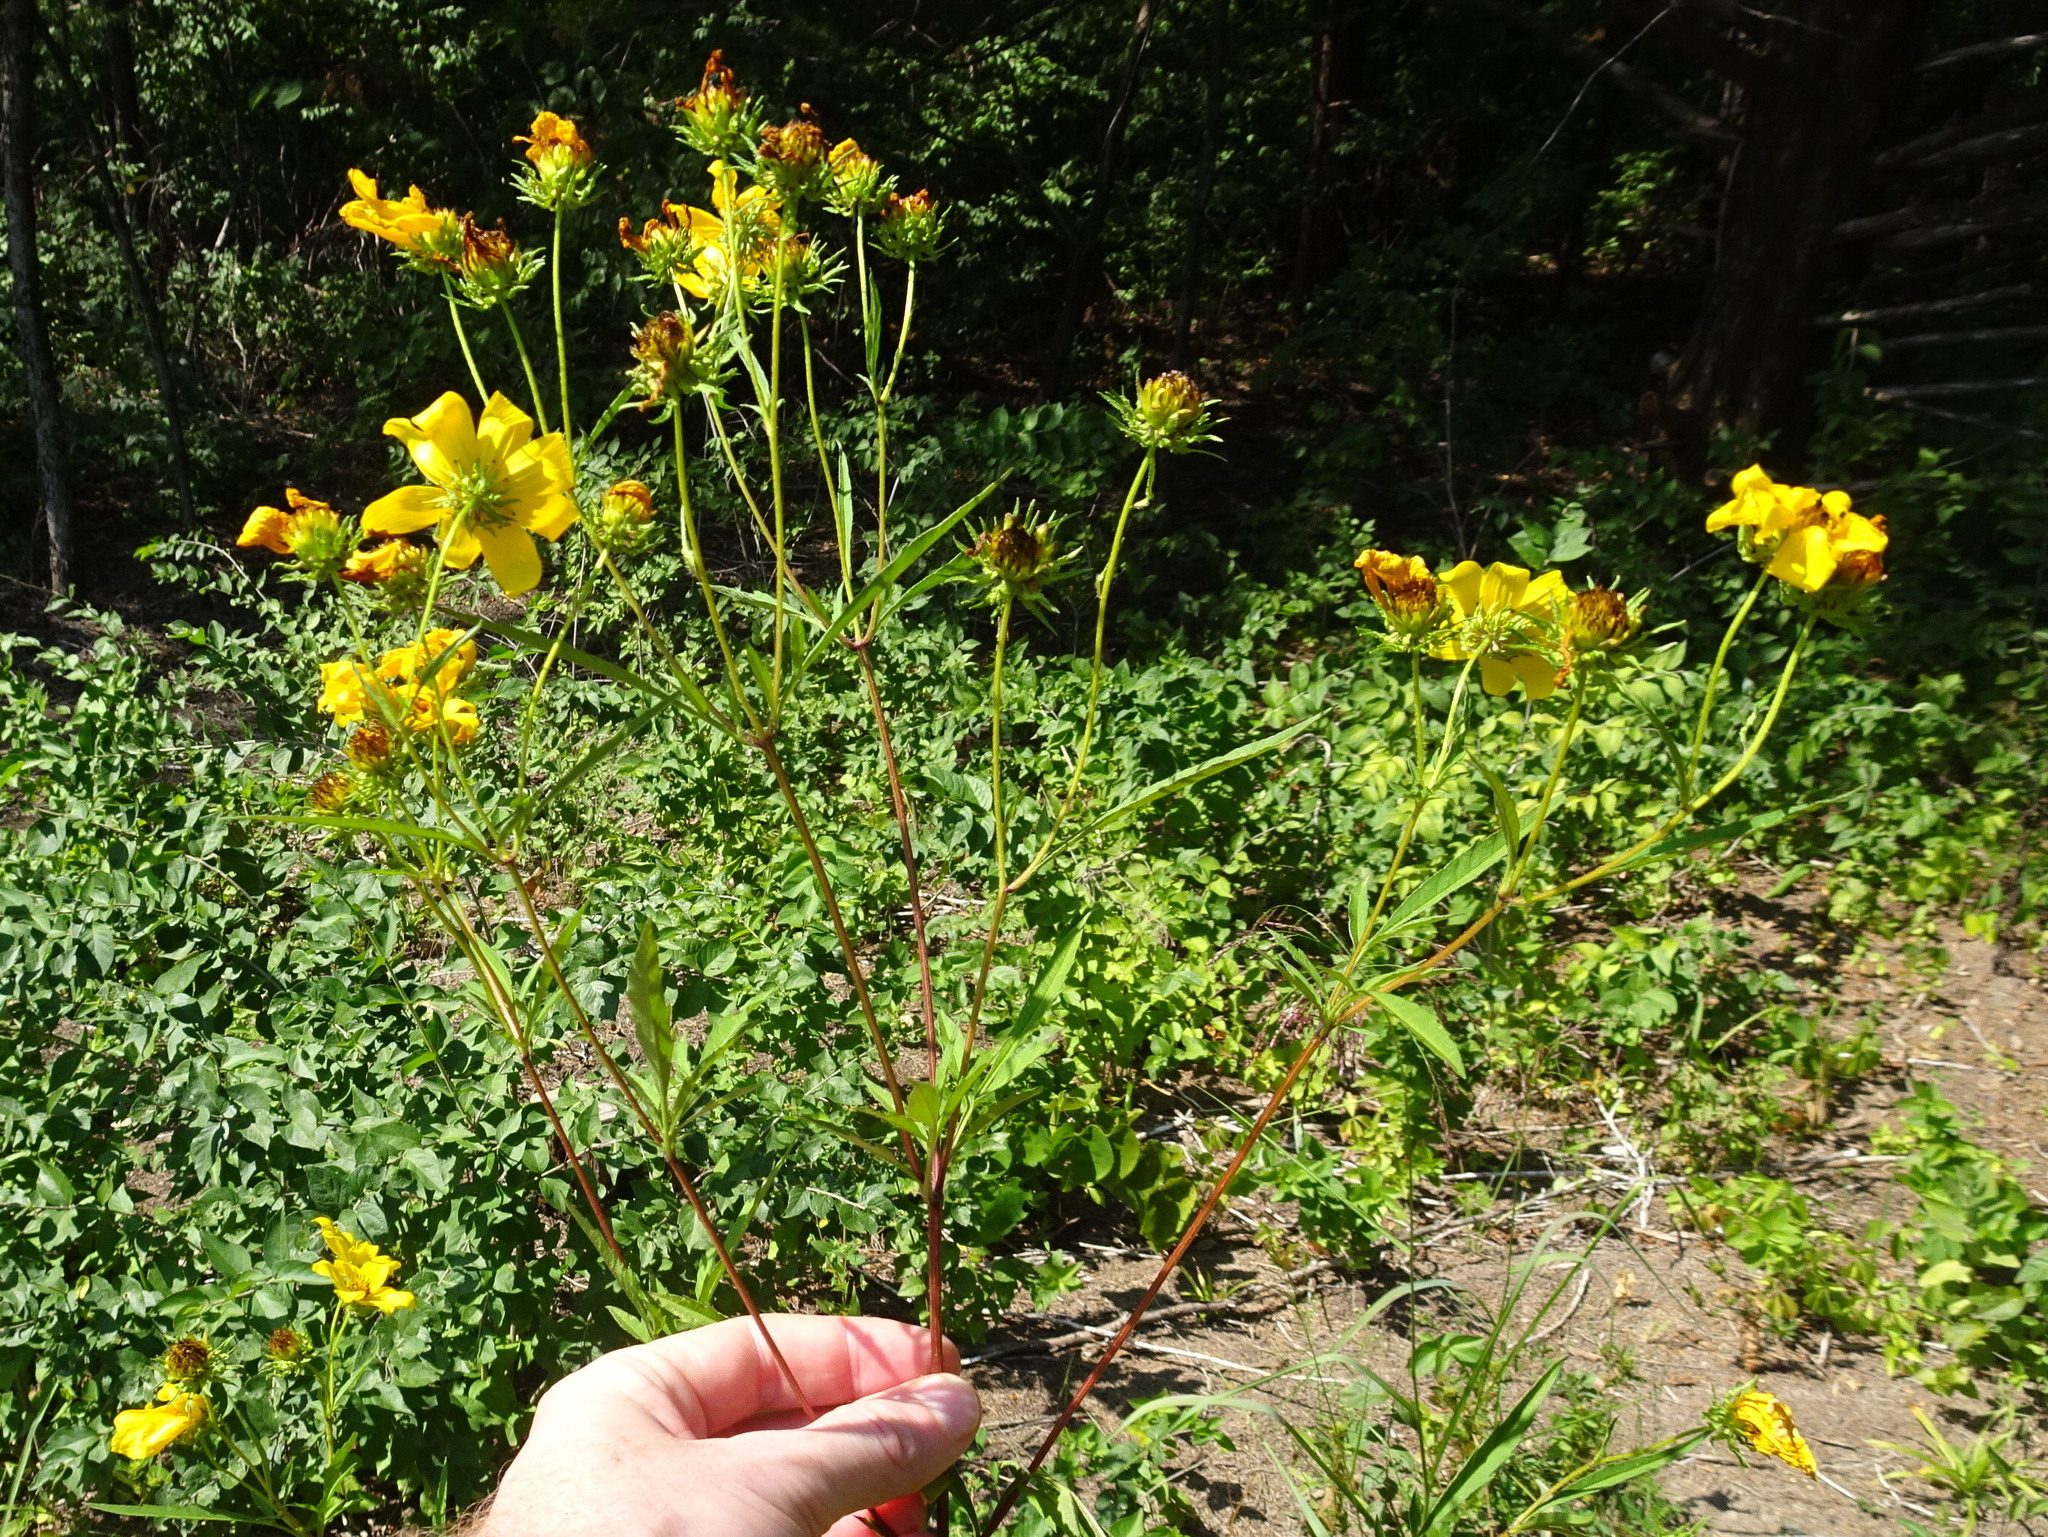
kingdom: Plantae
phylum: Tracheophyta
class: Magnoliopsida
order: Asterales
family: Asteraceae
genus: Bidens
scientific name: Bidens polylepis
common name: Awnless beggarticks
